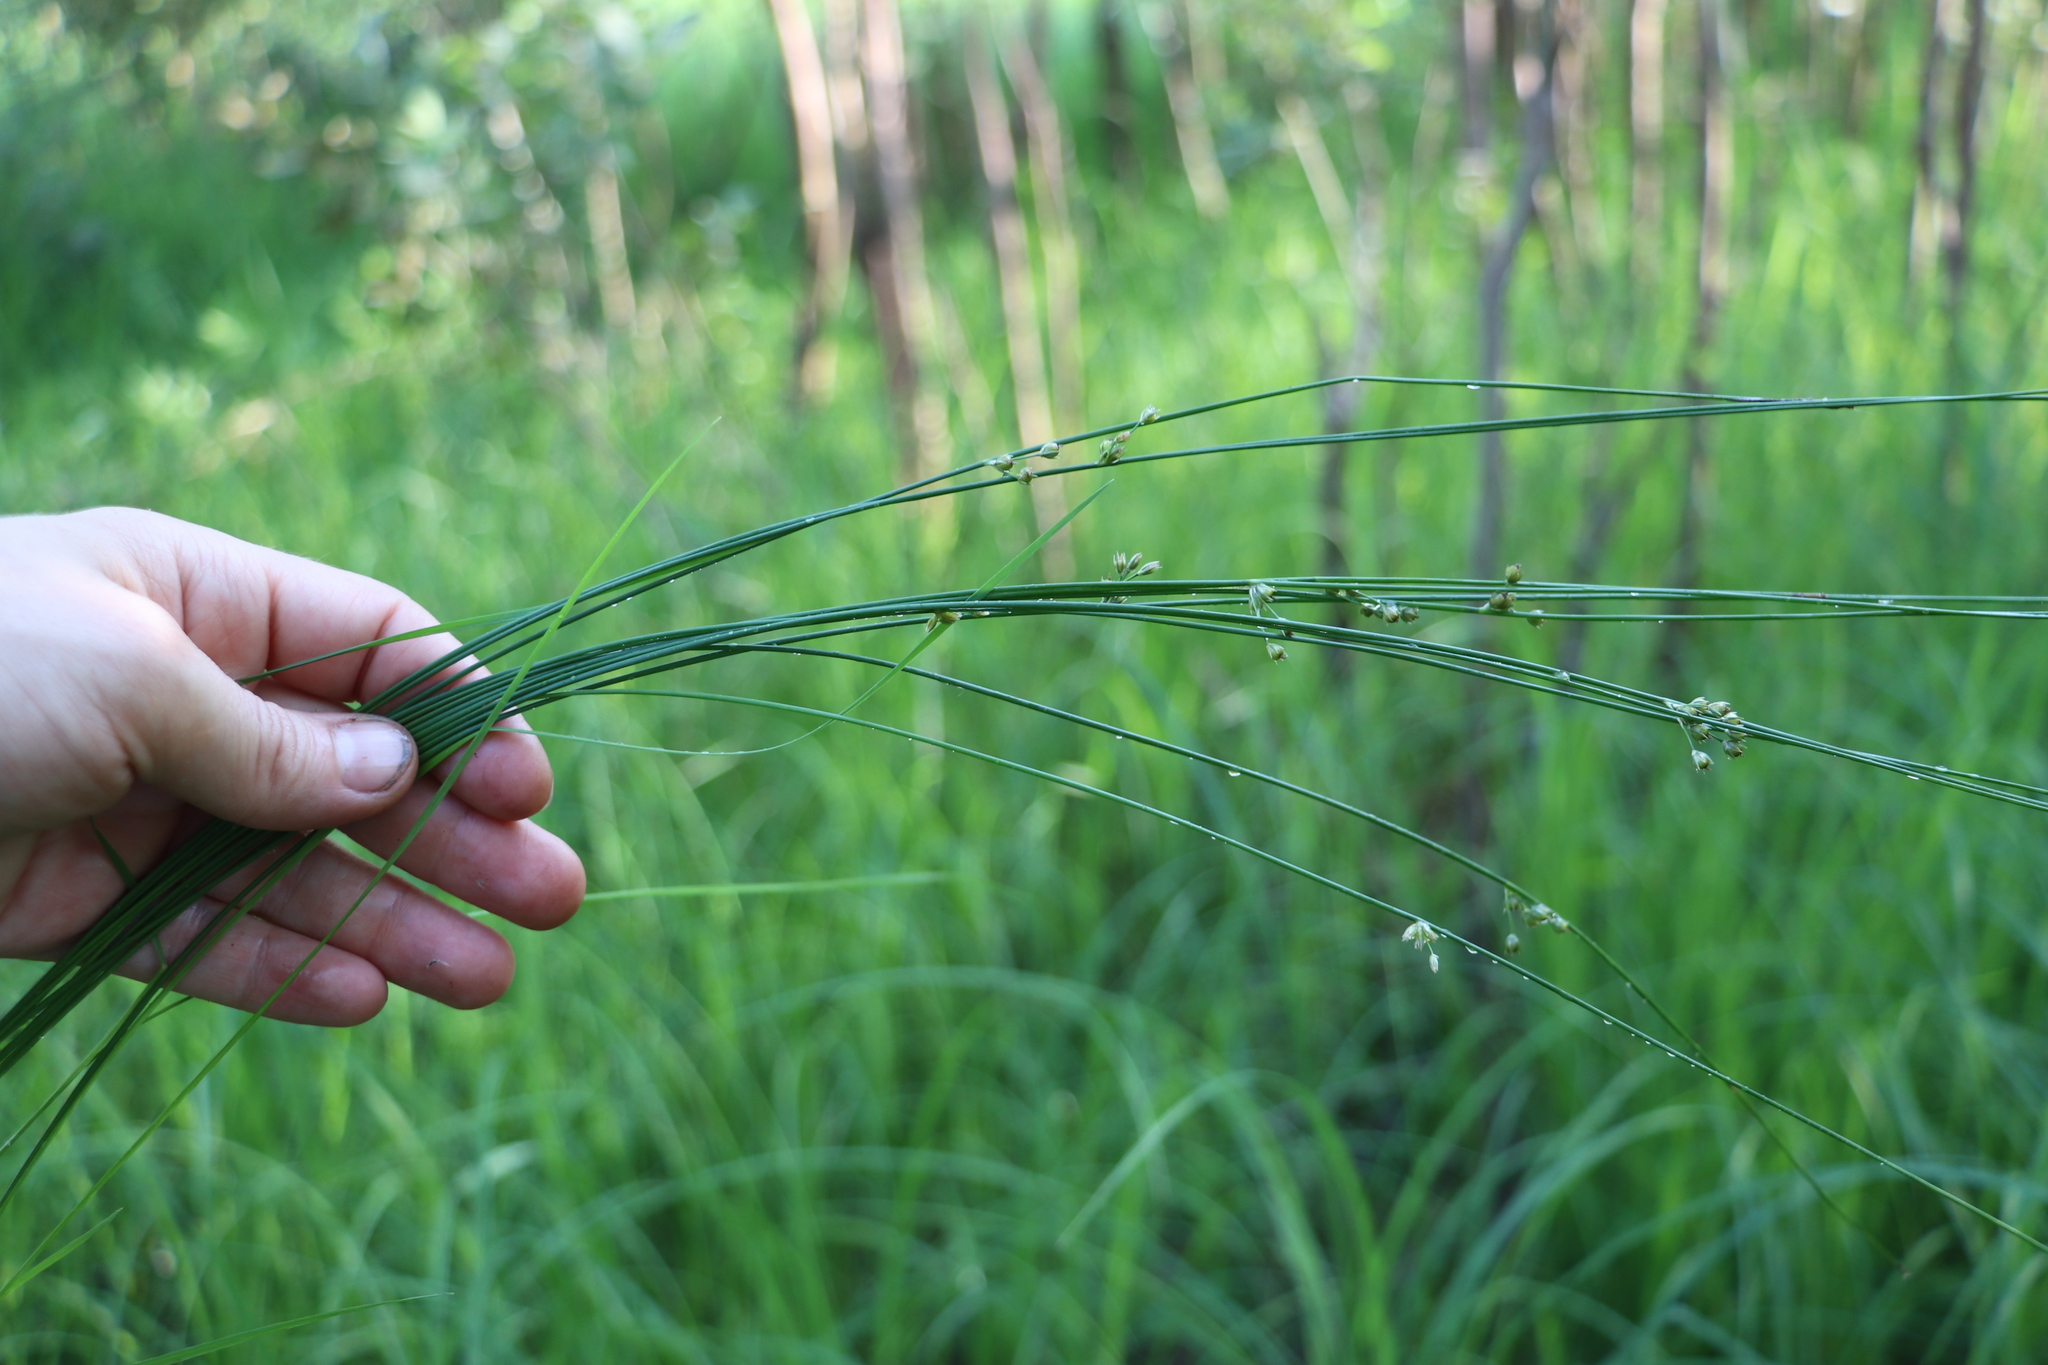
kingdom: Plantae
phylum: Tracheophyta
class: Liliopsida
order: Poales
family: Juncaceae
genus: Juncus
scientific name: Juncus filiformis
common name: Thread rush
